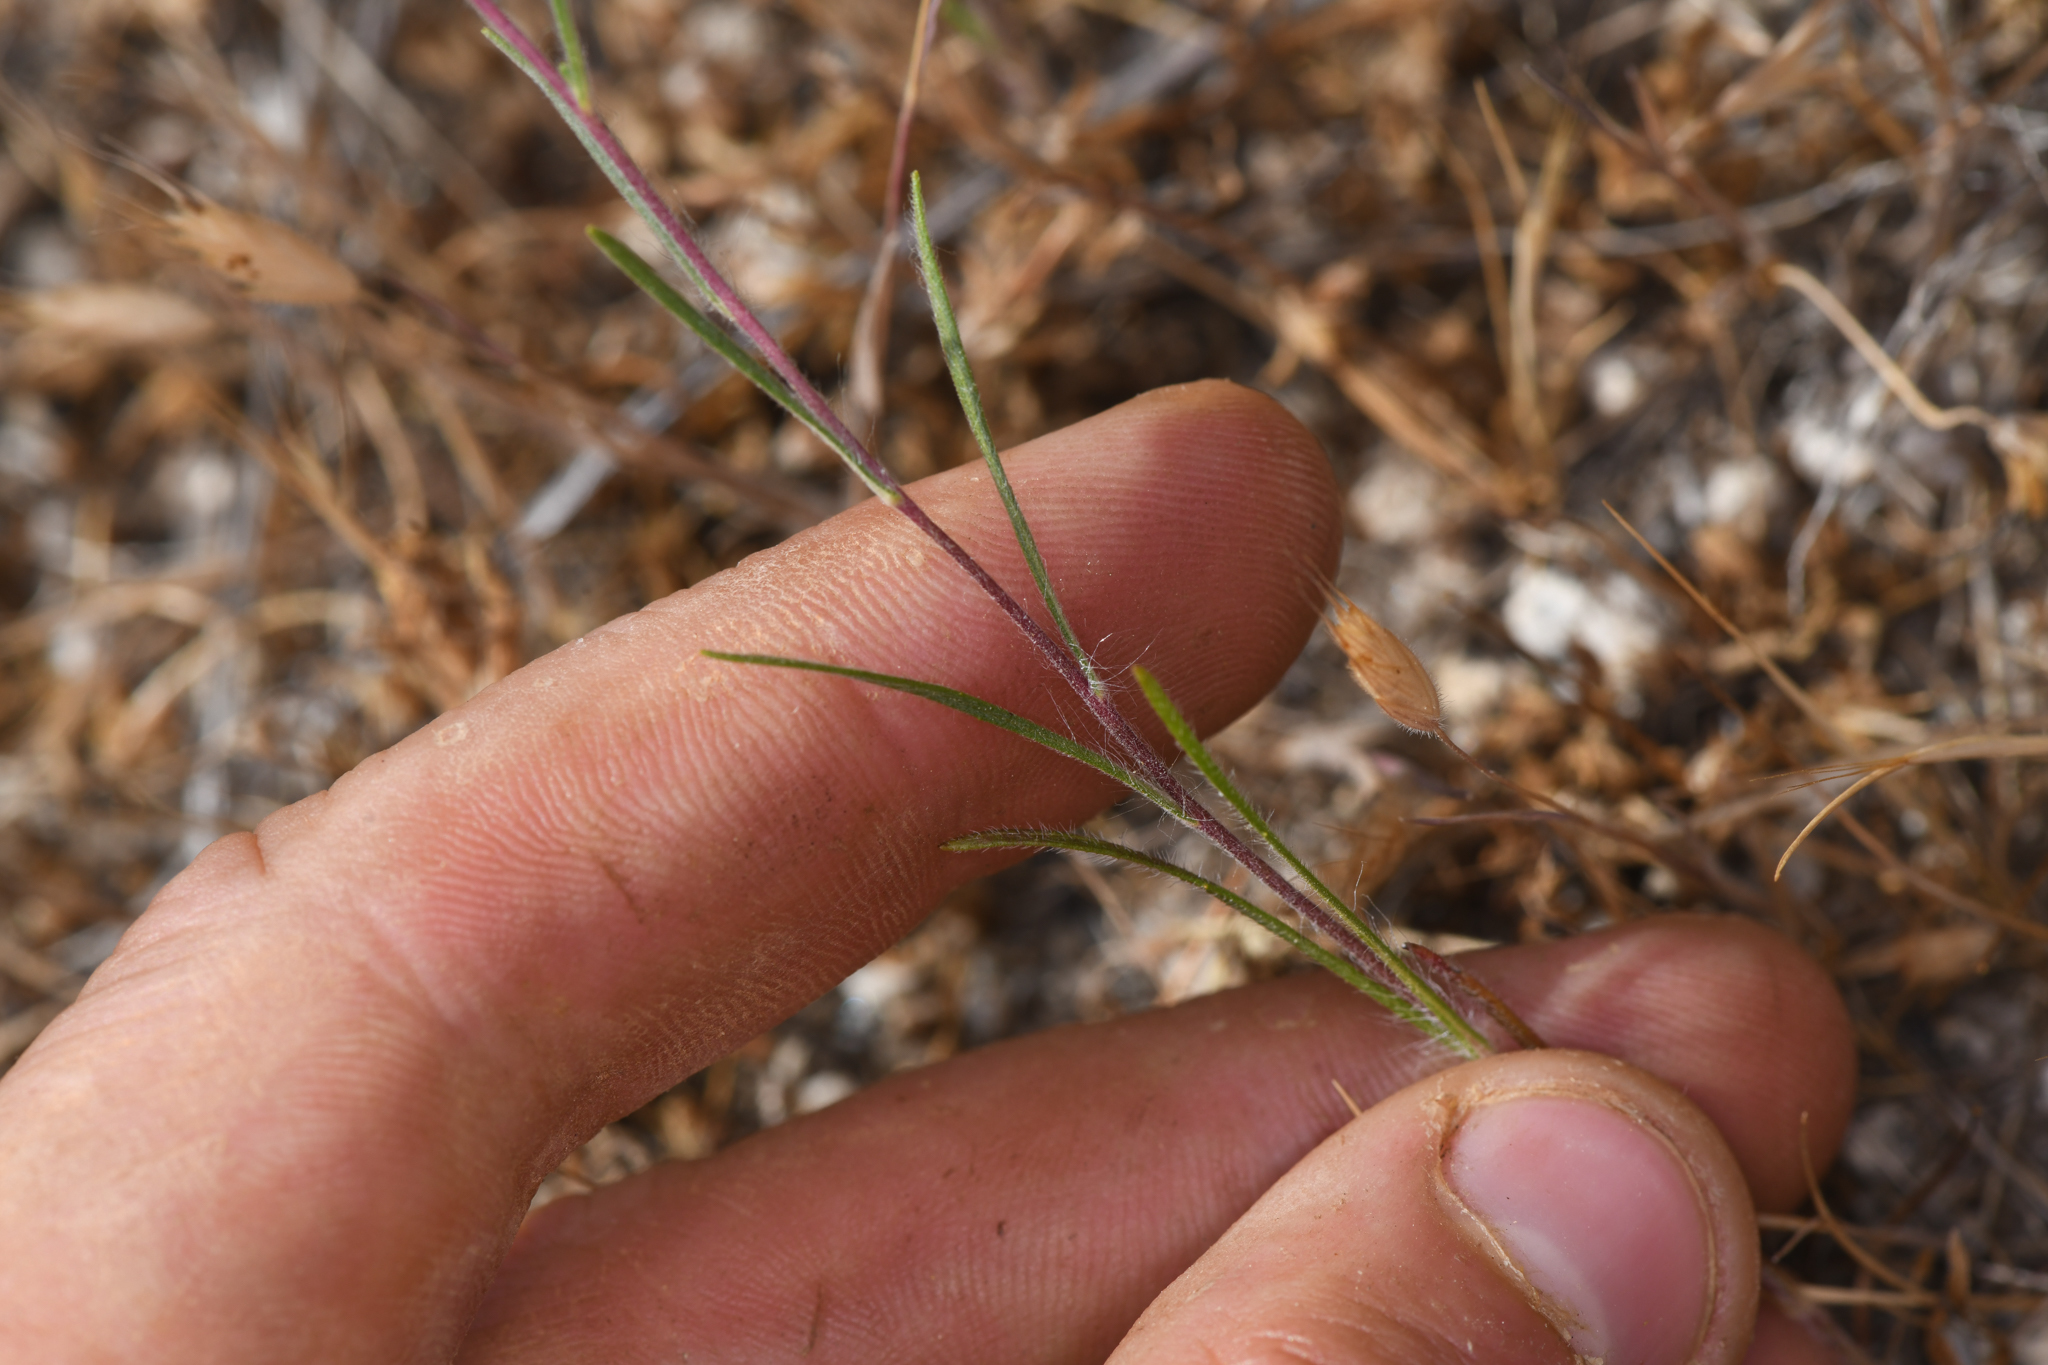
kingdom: Plantae
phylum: Tracheophyta
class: Magnoliopsida
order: Asterales
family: Asteraceae
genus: Calycadenia
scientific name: Calycadenia mollis
